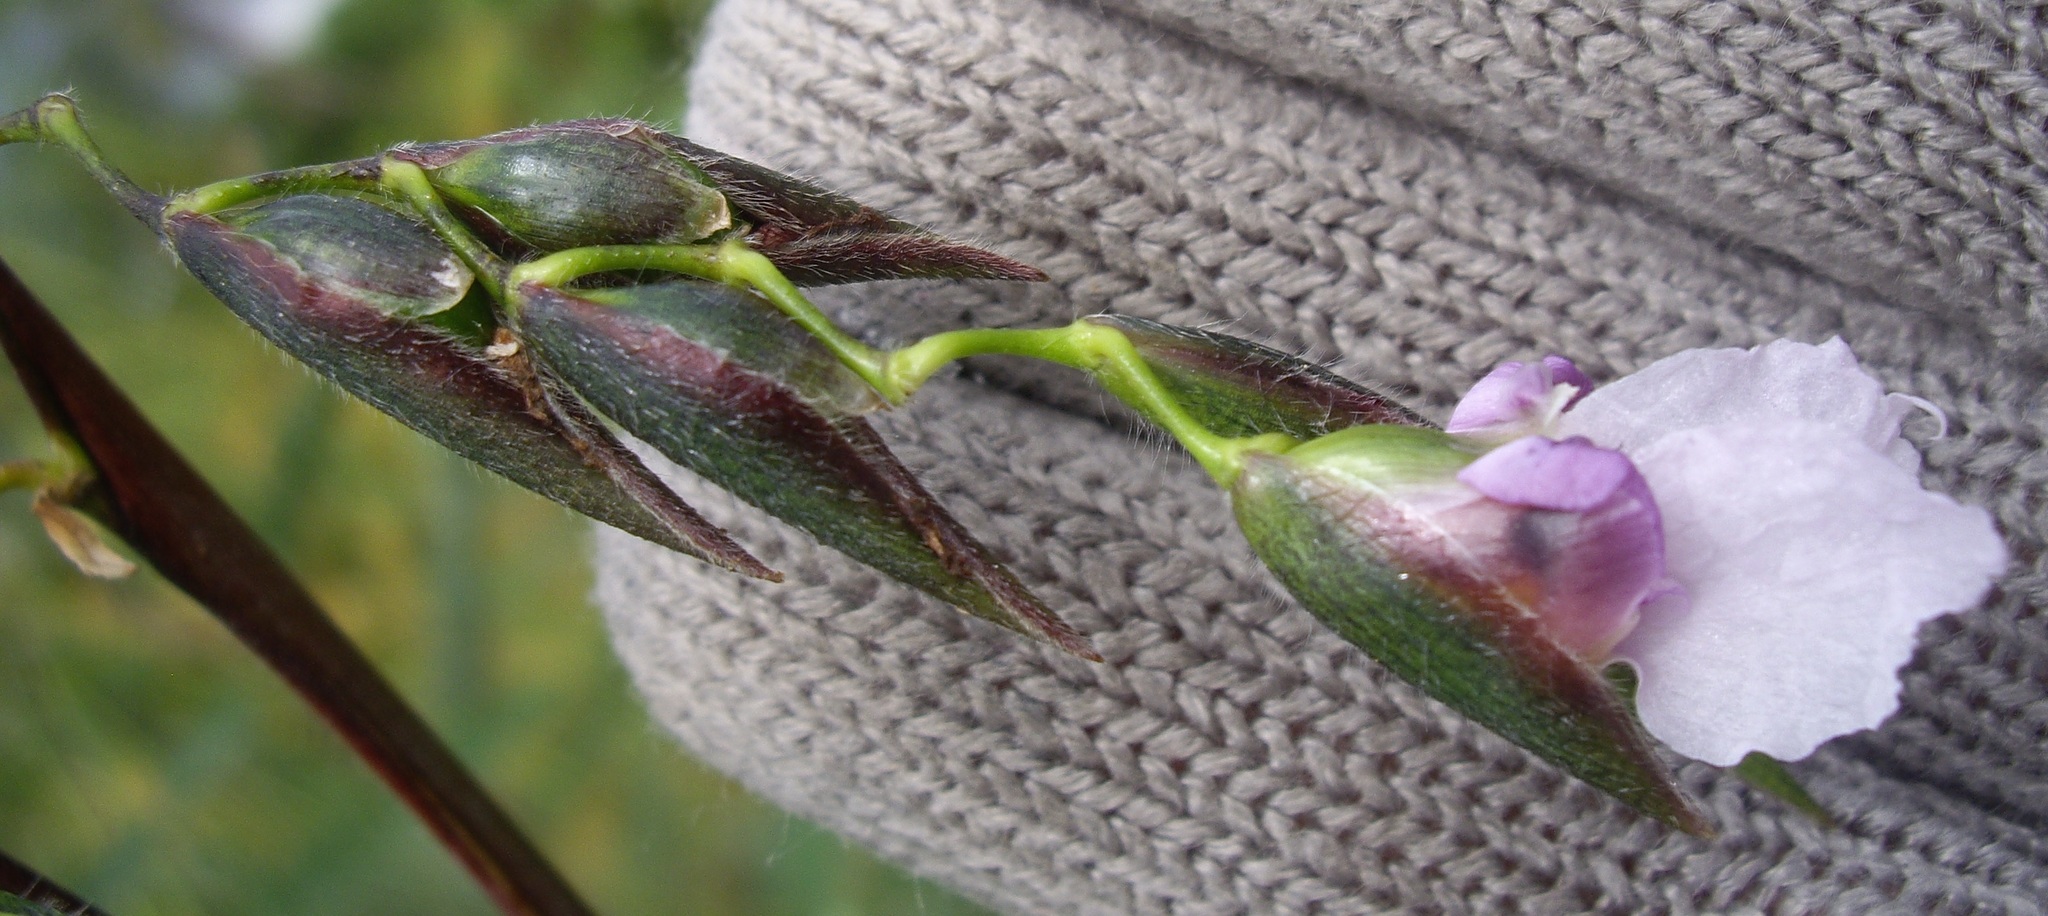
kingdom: Plantae
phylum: Tracheophyta
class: Liliopsida
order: Zingiberales
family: Marantaceae
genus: Thalia
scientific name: Thalia geniculata
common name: Arrowroot
